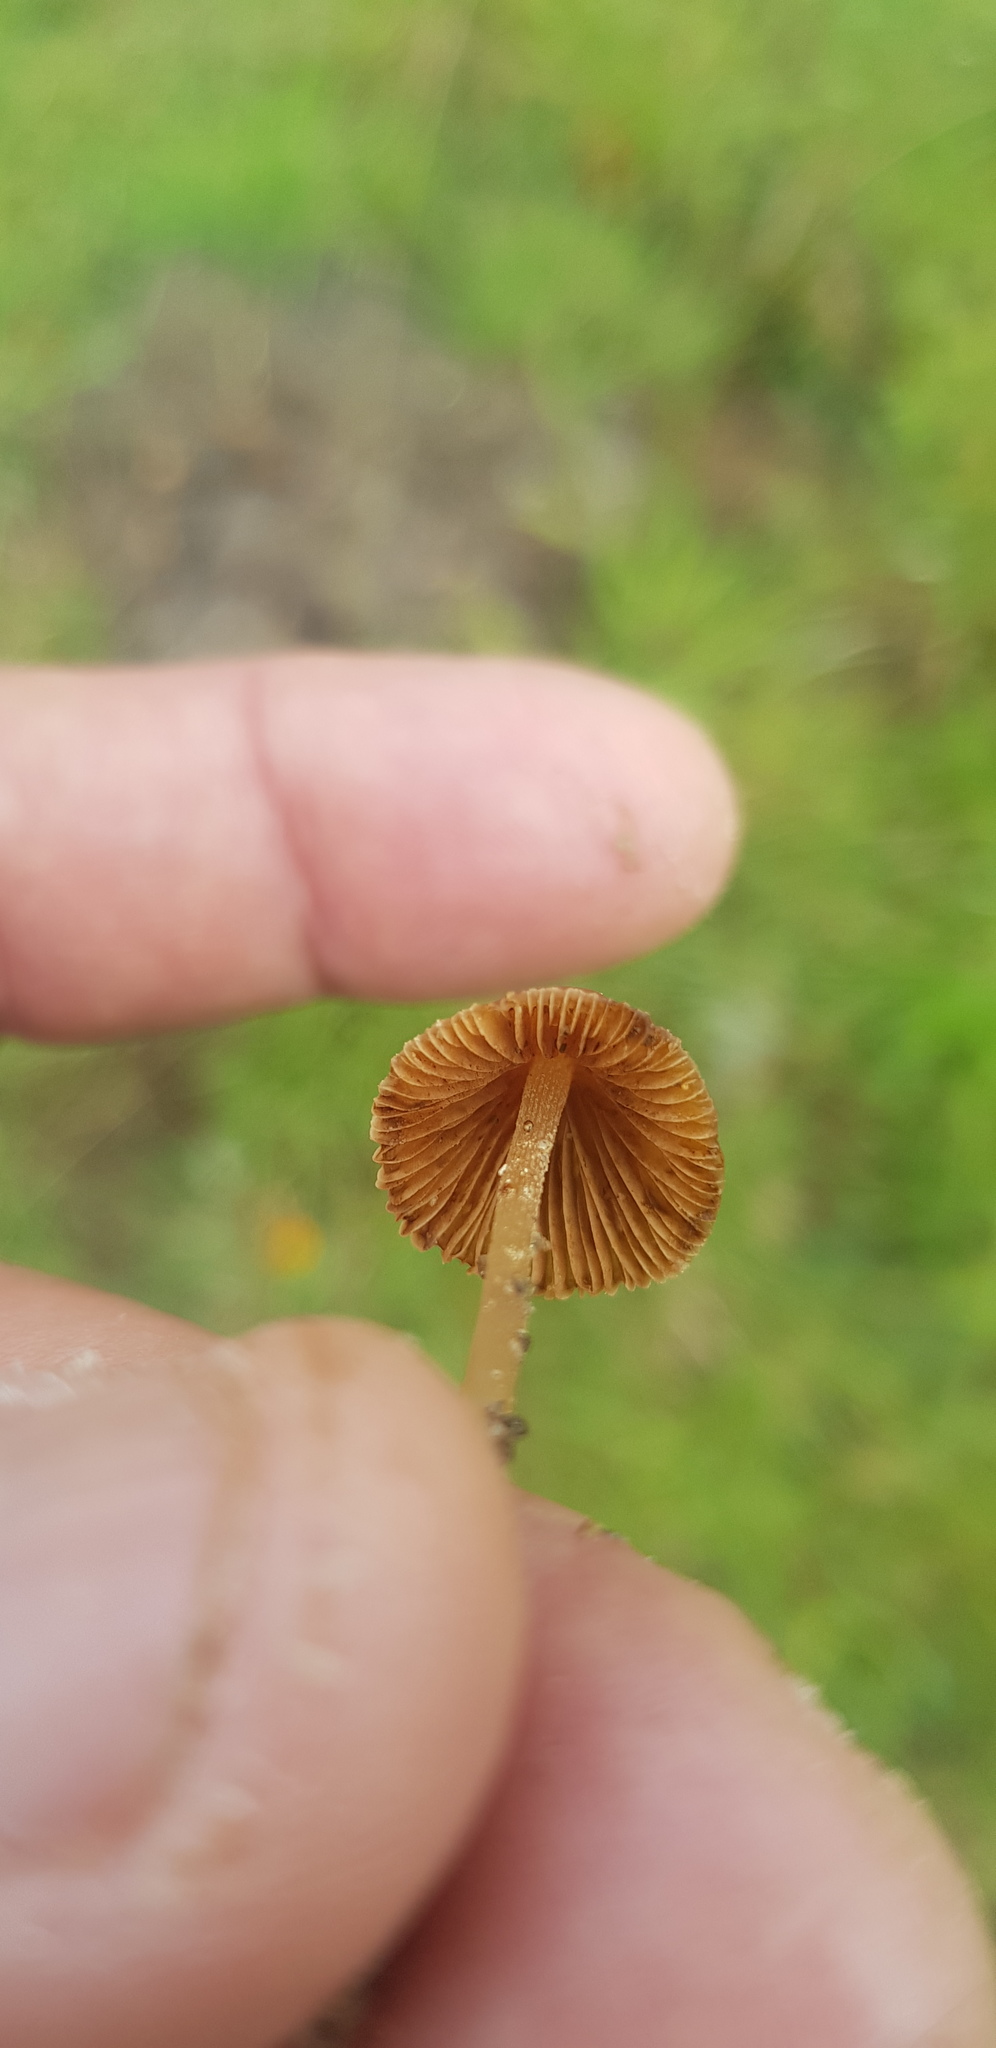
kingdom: Fungi
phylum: Basidiomycota
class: Agaricomycetes
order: Agaricales
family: Bolbitiaceae
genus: Conocybe
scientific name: Conocybe coprophila
